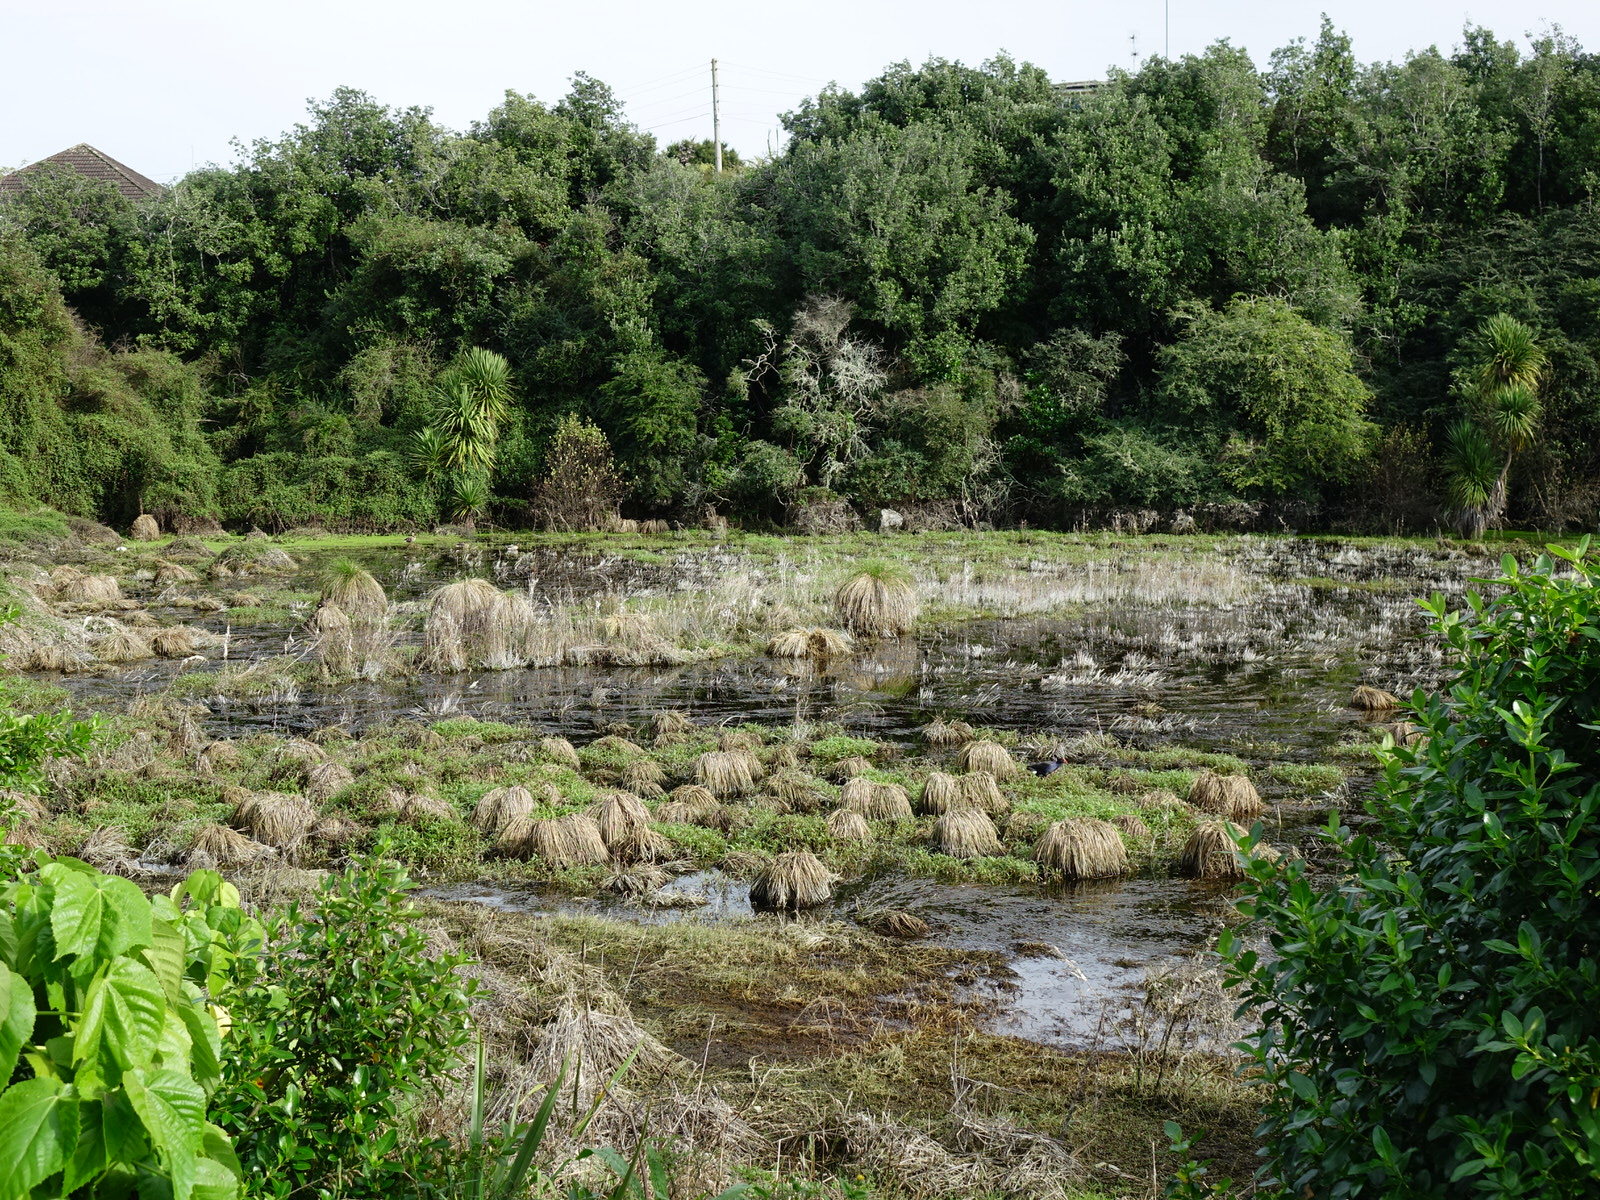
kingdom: Animalia
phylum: Chordata
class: Aves
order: Gruiformes
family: Rallidae
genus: Porphyrio
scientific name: Porphyrio melanotus
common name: Australasian swamphen
